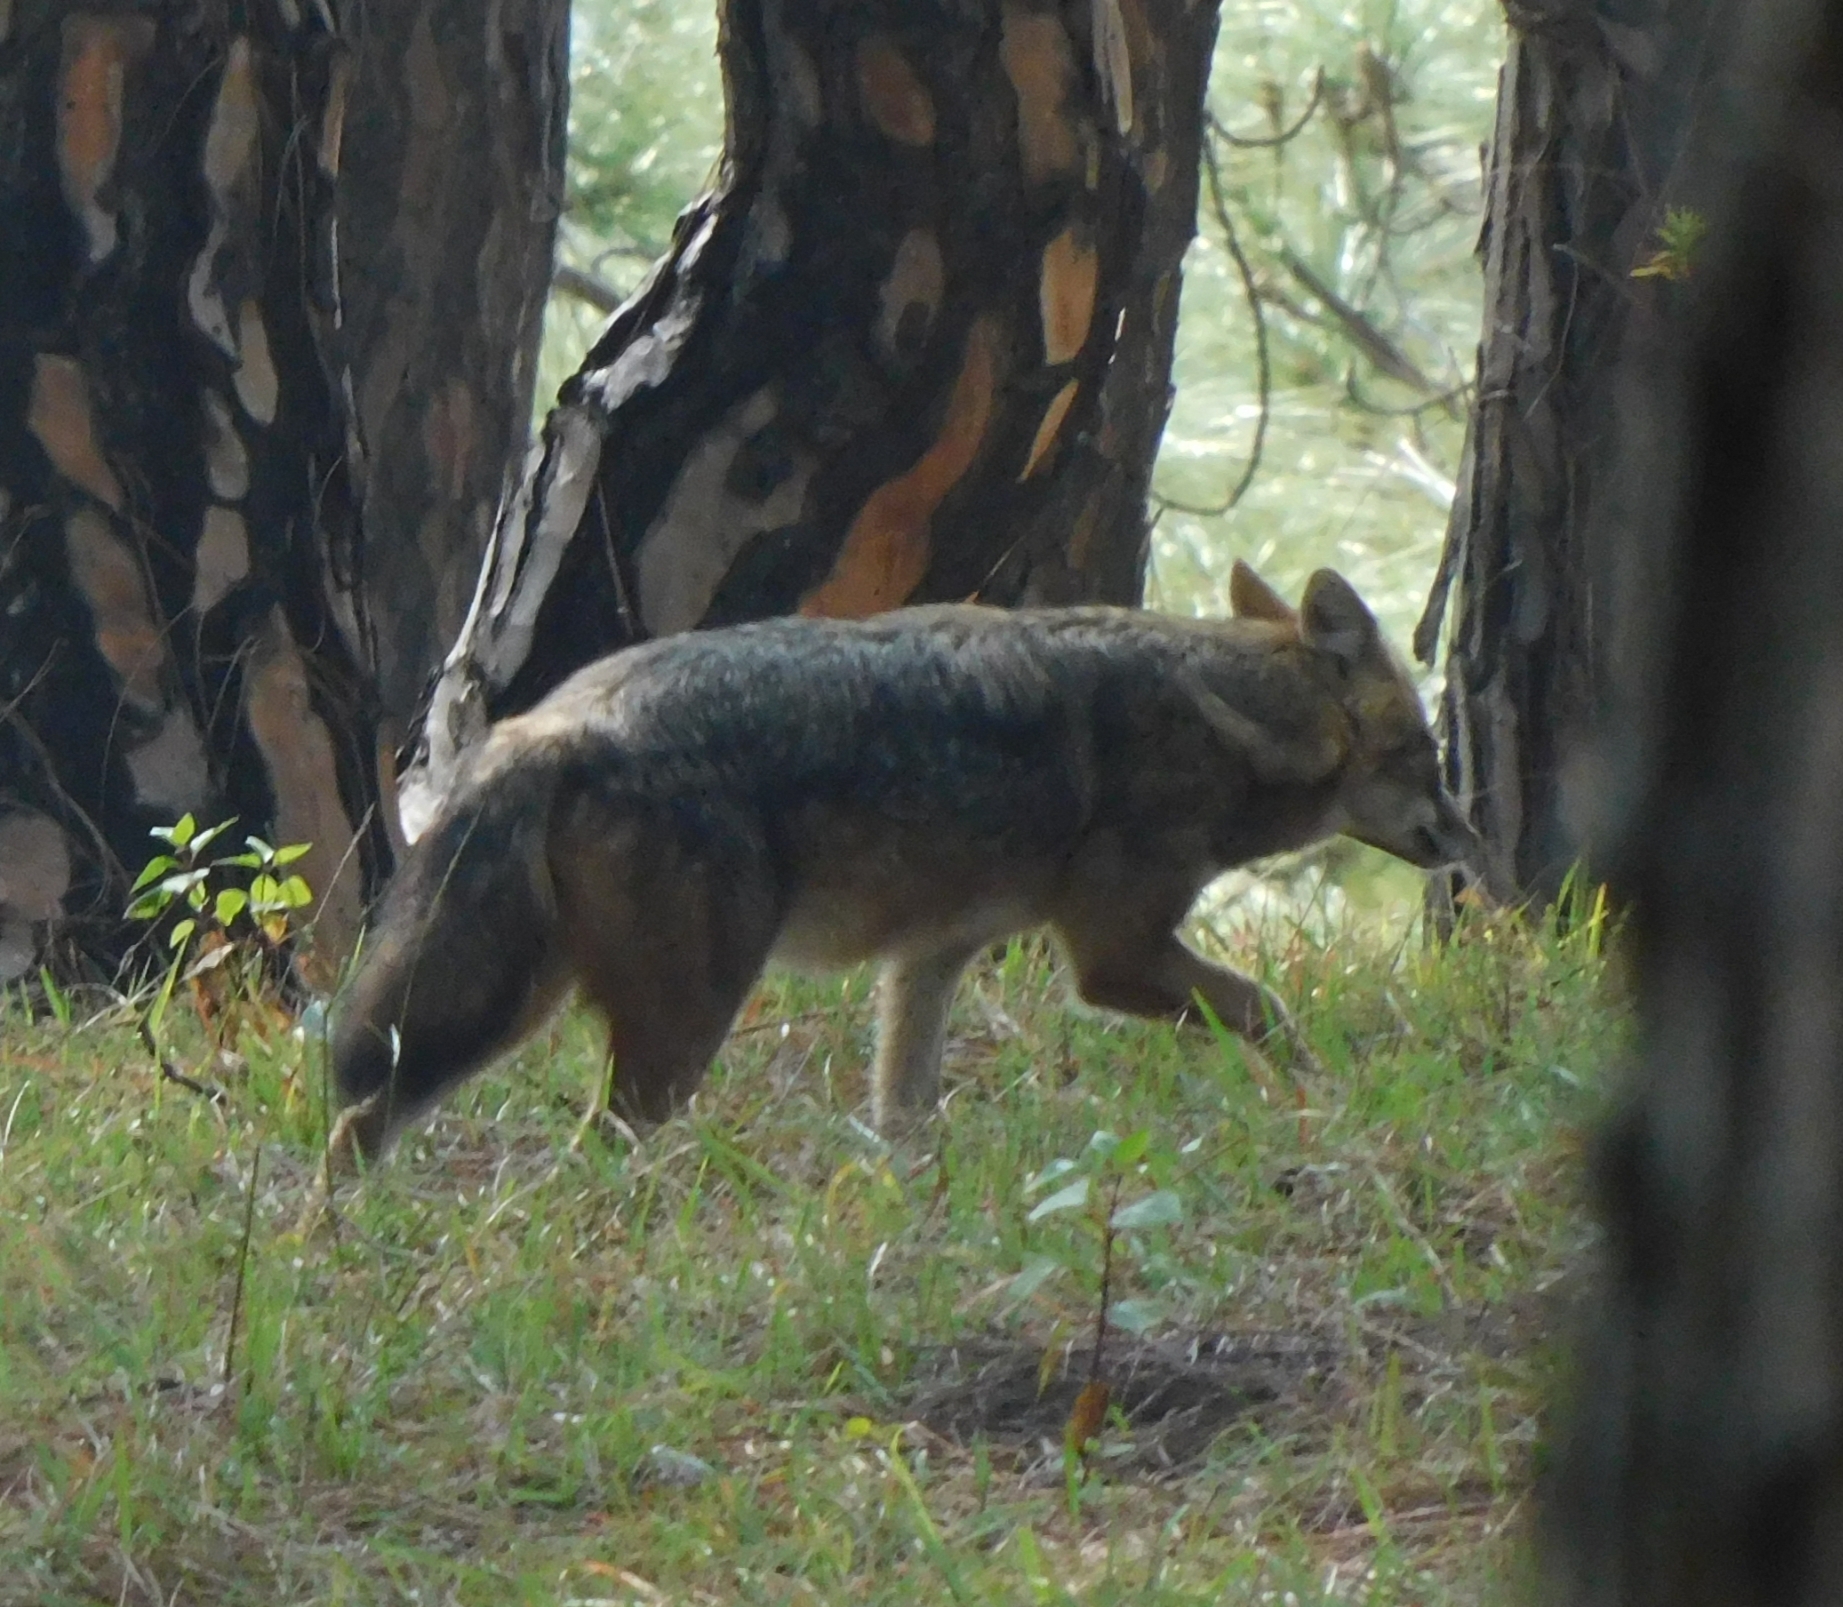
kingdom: Animalia
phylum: Chordata
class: Mammalia
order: Carnivora
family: Canidae
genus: Canis
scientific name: Canis aureus
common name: Golden jackal
